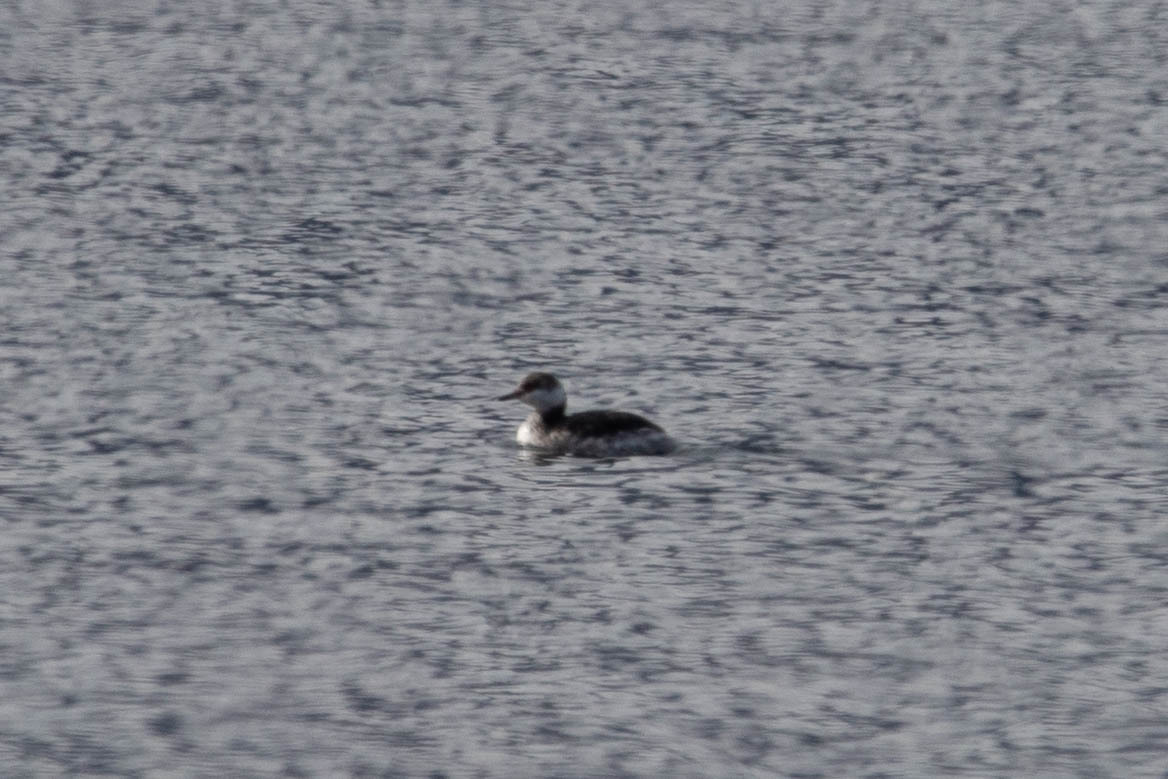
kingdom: Animalia
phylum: Chordata
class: Aves
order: Podicipediformes
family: Podicipedidae
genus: Podiceps
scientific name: Podiceps auritus
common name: Horned grebe
